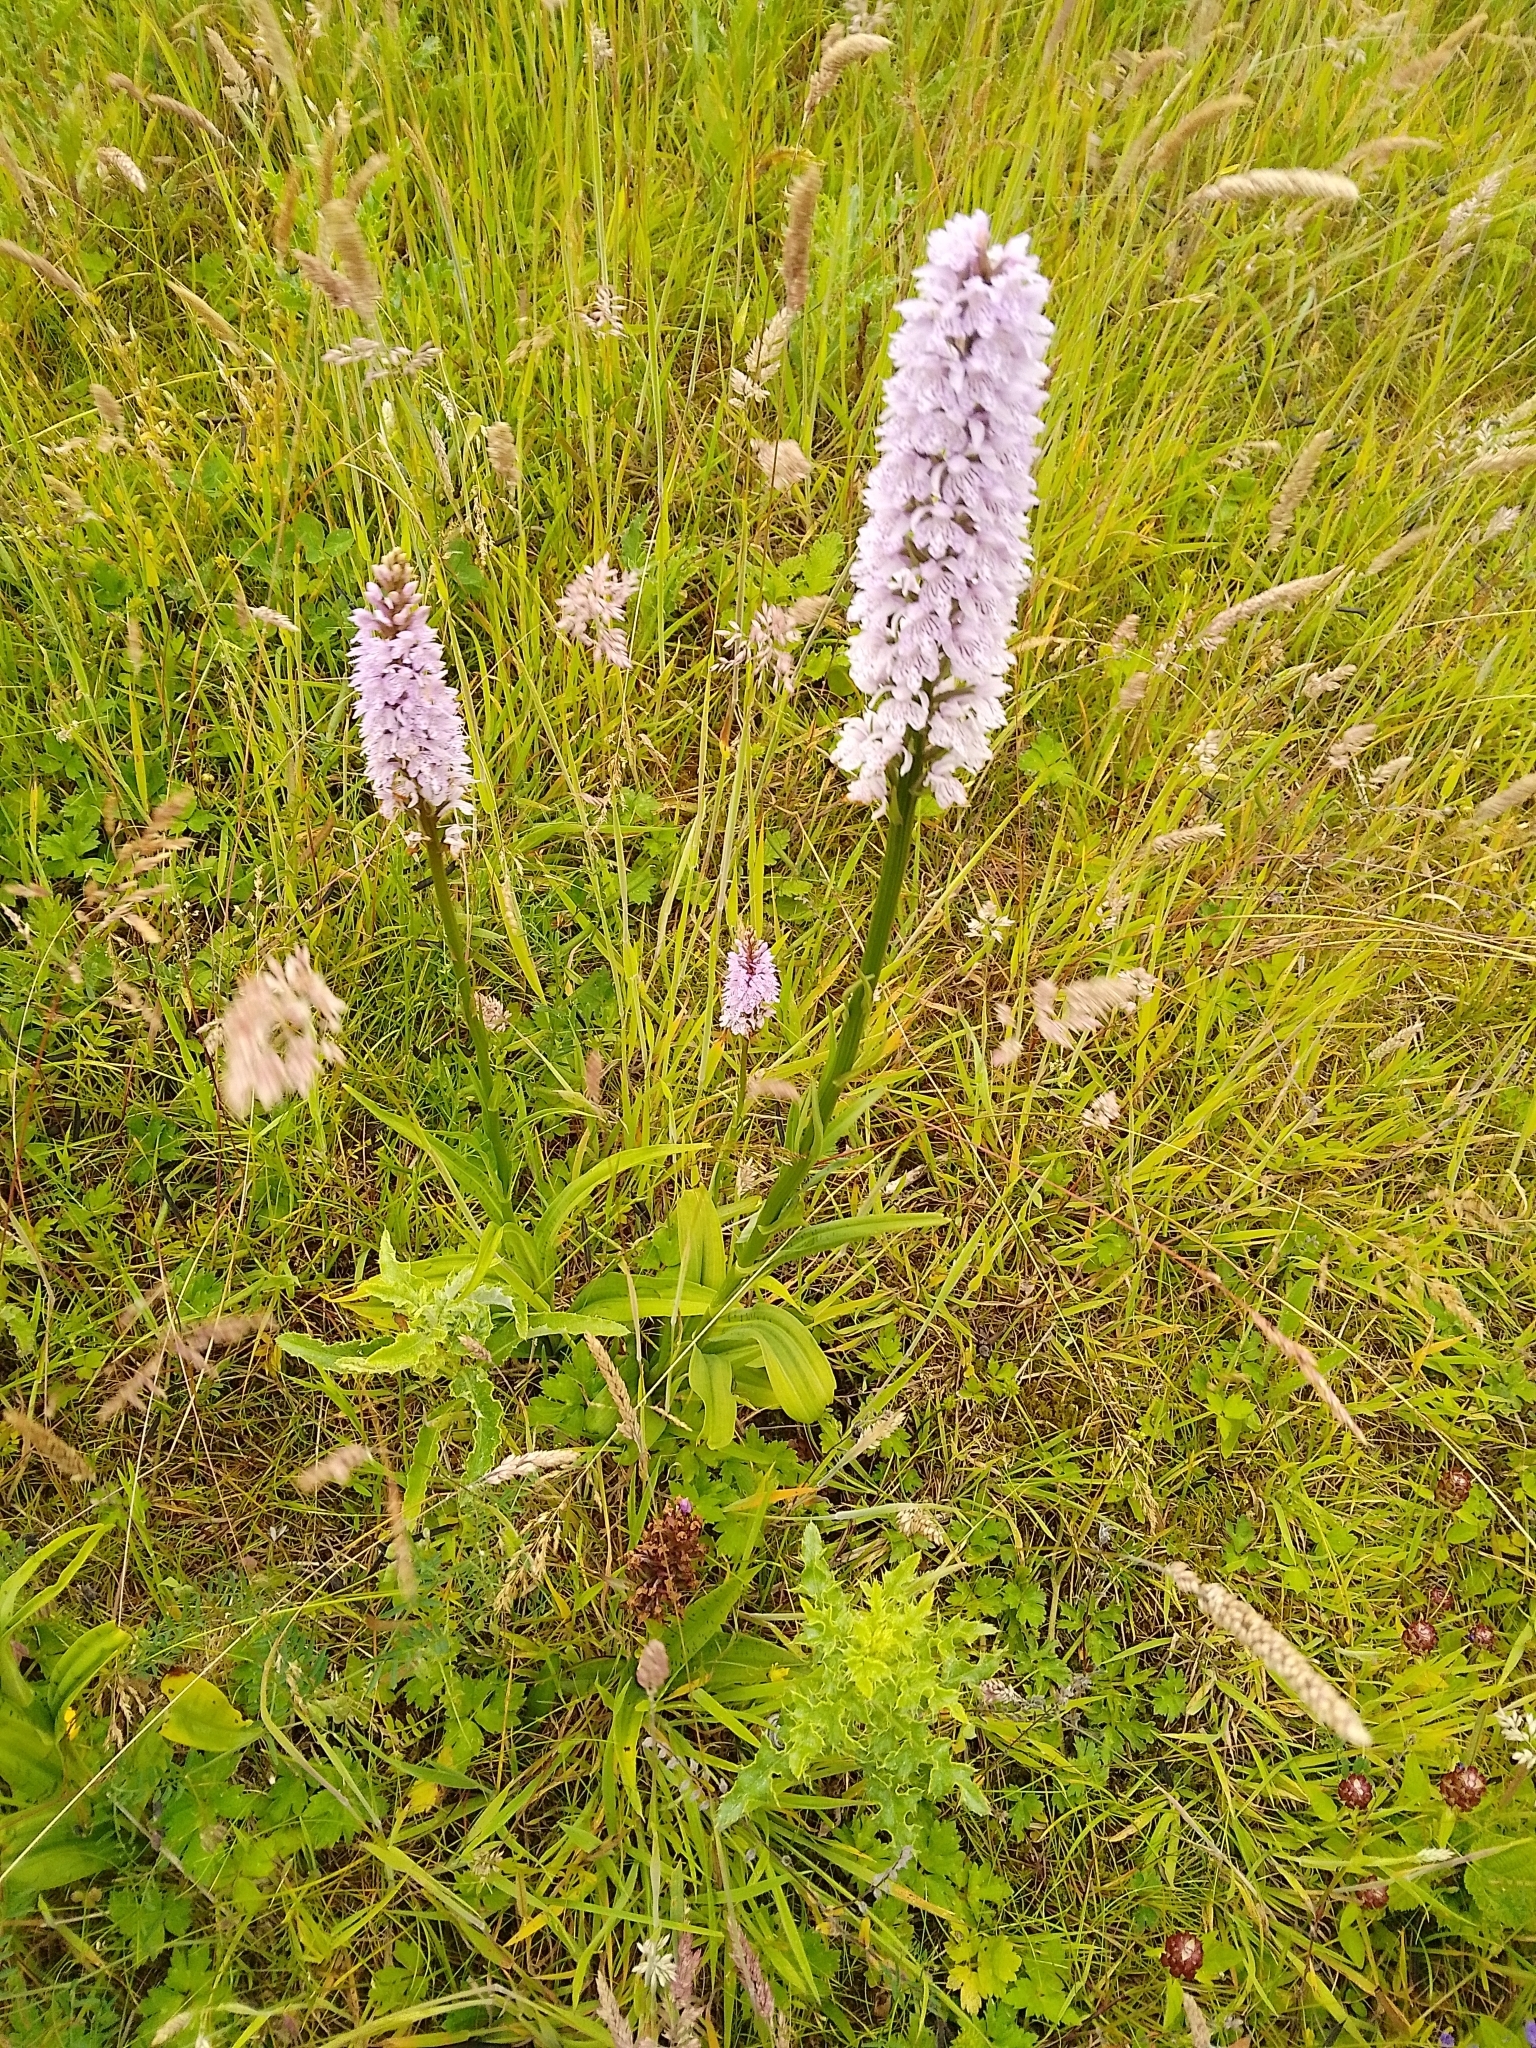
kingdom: Plantae
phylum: Tracheophyta
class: Liliopsida
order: Asparagales
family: Orchidaceae
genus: Dactylorhiza
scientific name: Dactylorhiza maculata
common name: Heath spotted-orchid
